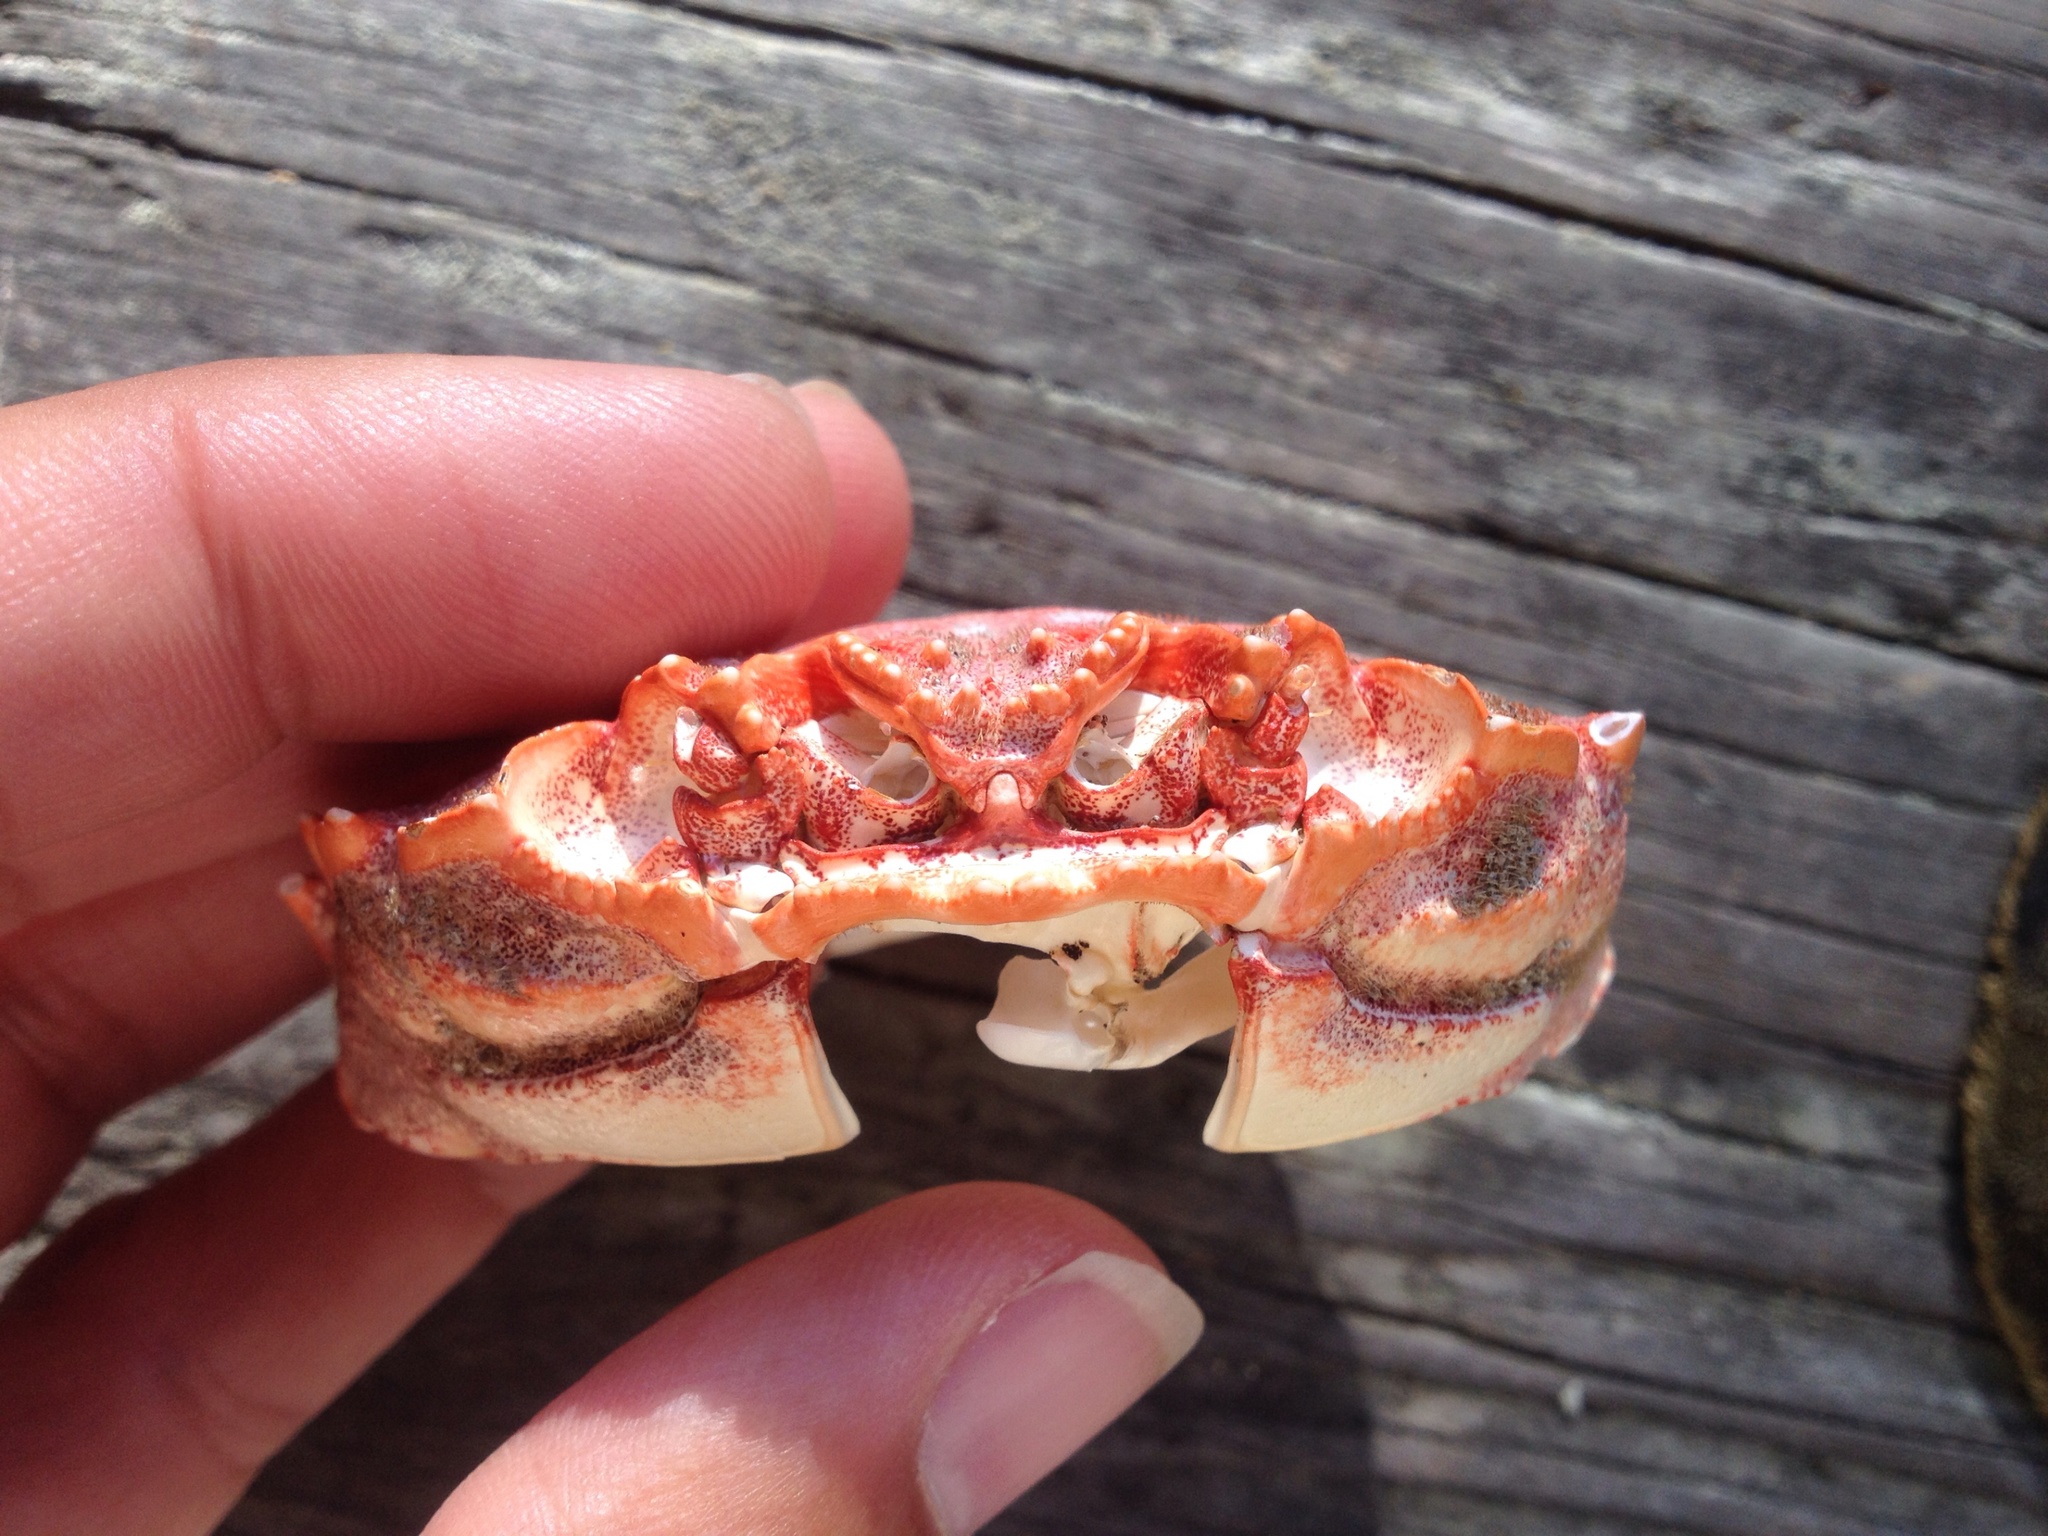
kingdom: Animalia
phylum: Arthropoda
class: Malacostraca
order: Decapoda
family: Plagusiidae
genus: Guinusia
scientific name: Guinusia chabrus
